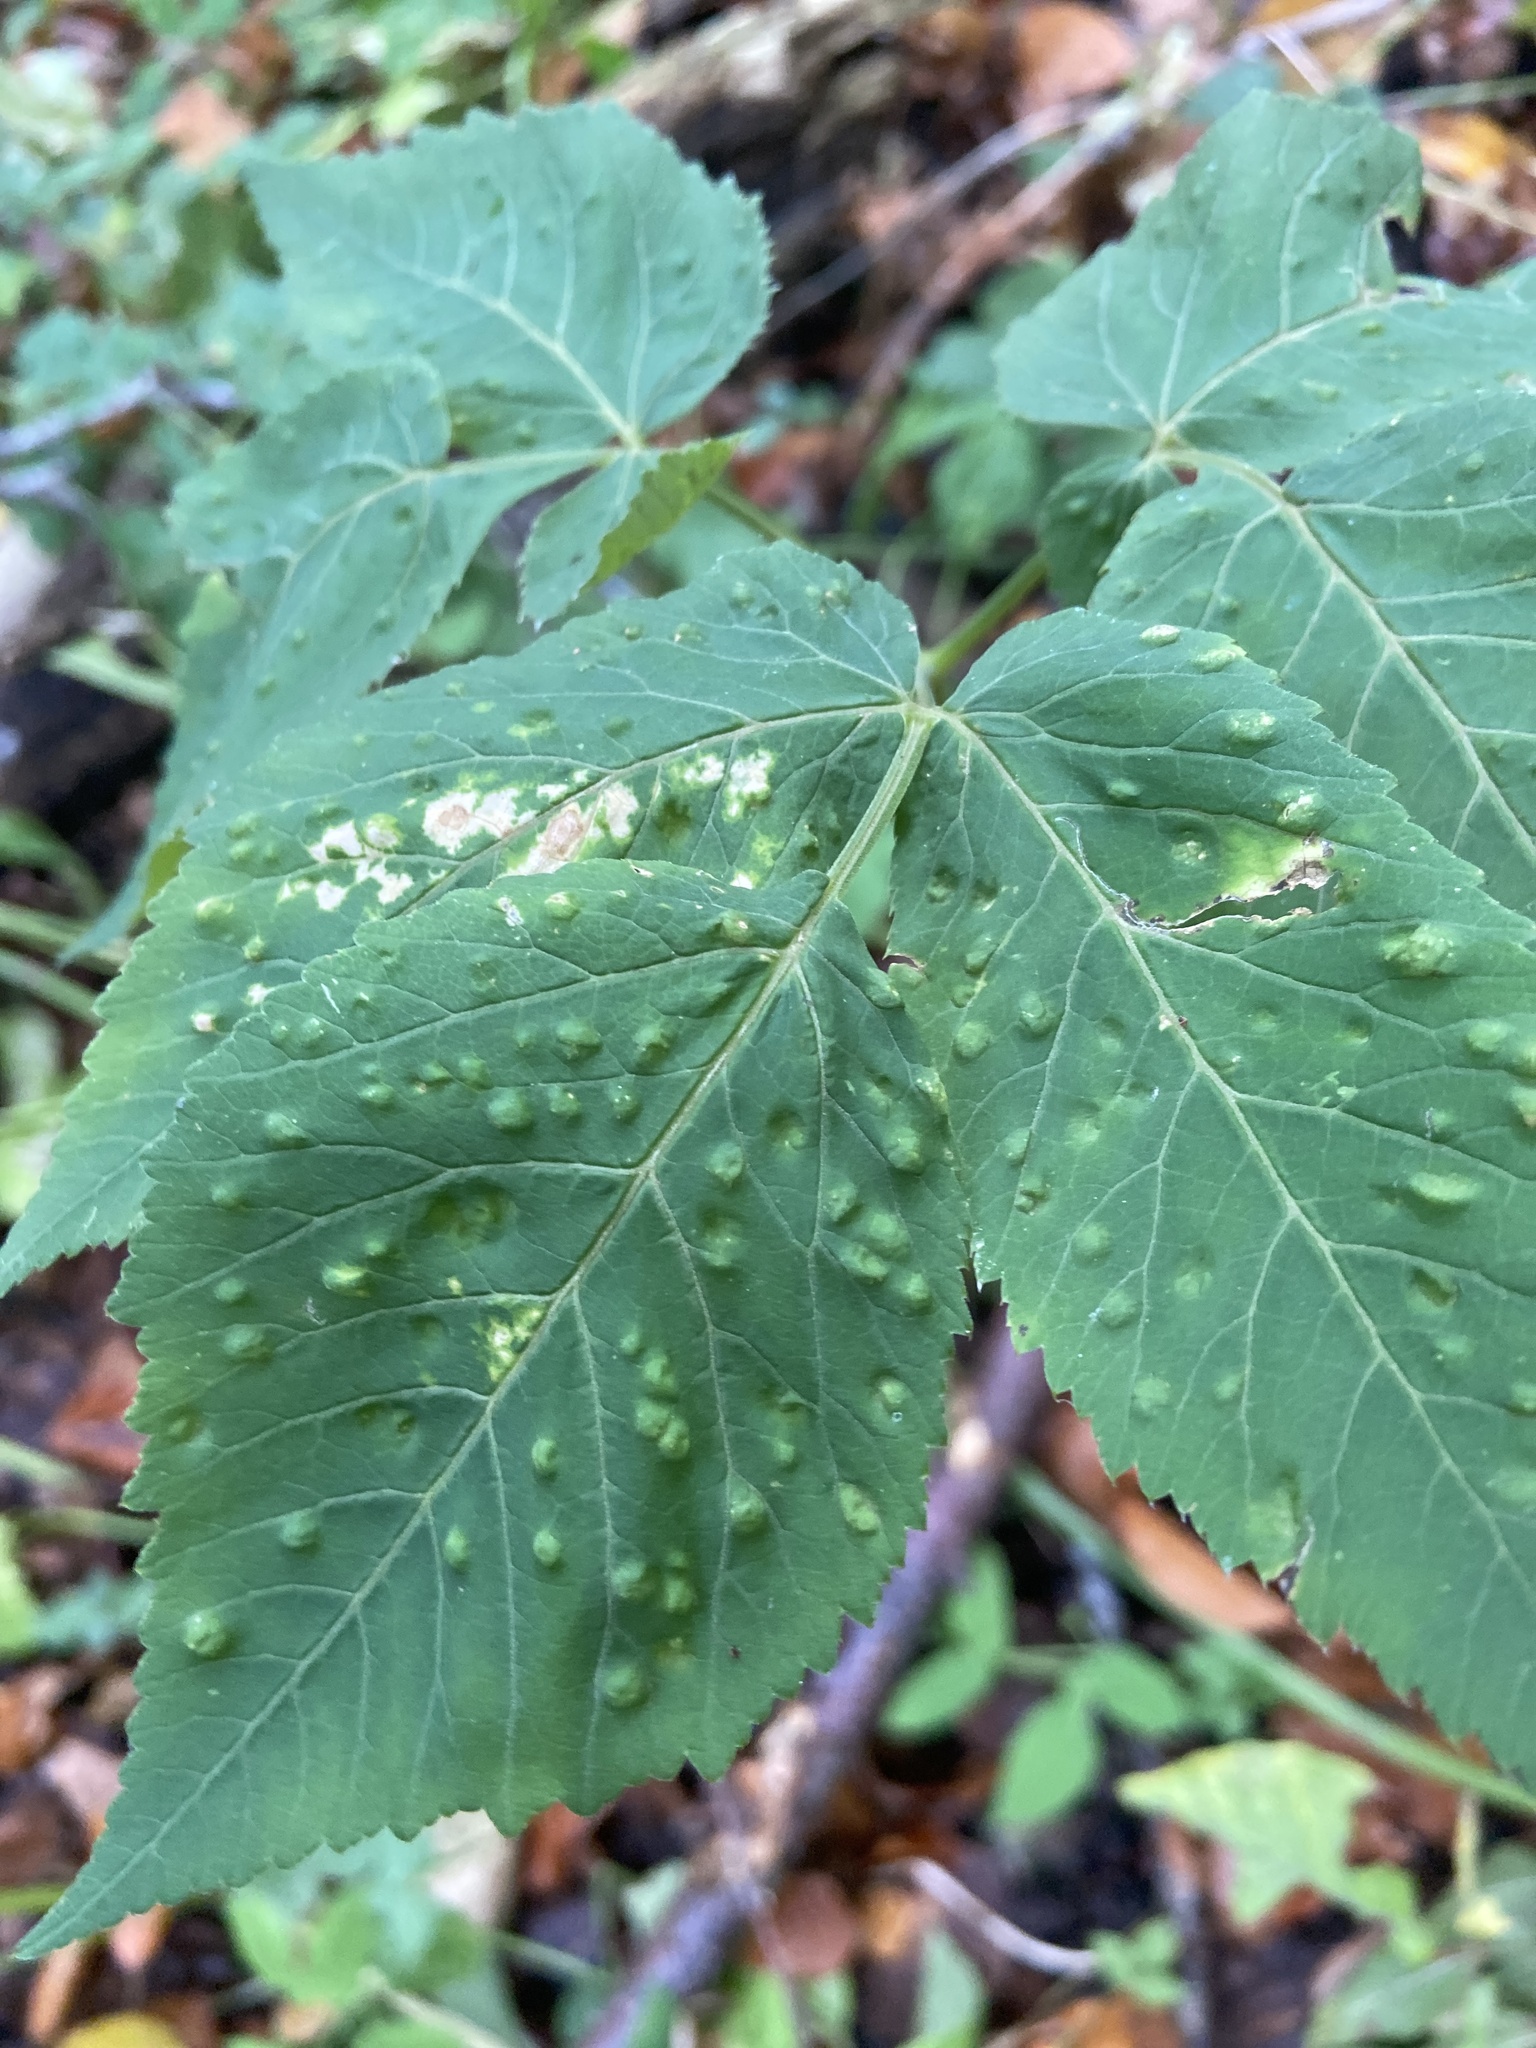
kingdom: Animalia
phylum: Arthropoda
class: Insecta
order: Hemiptera
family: Triozidae
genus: Trioza
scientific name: Trioza flavipennis
